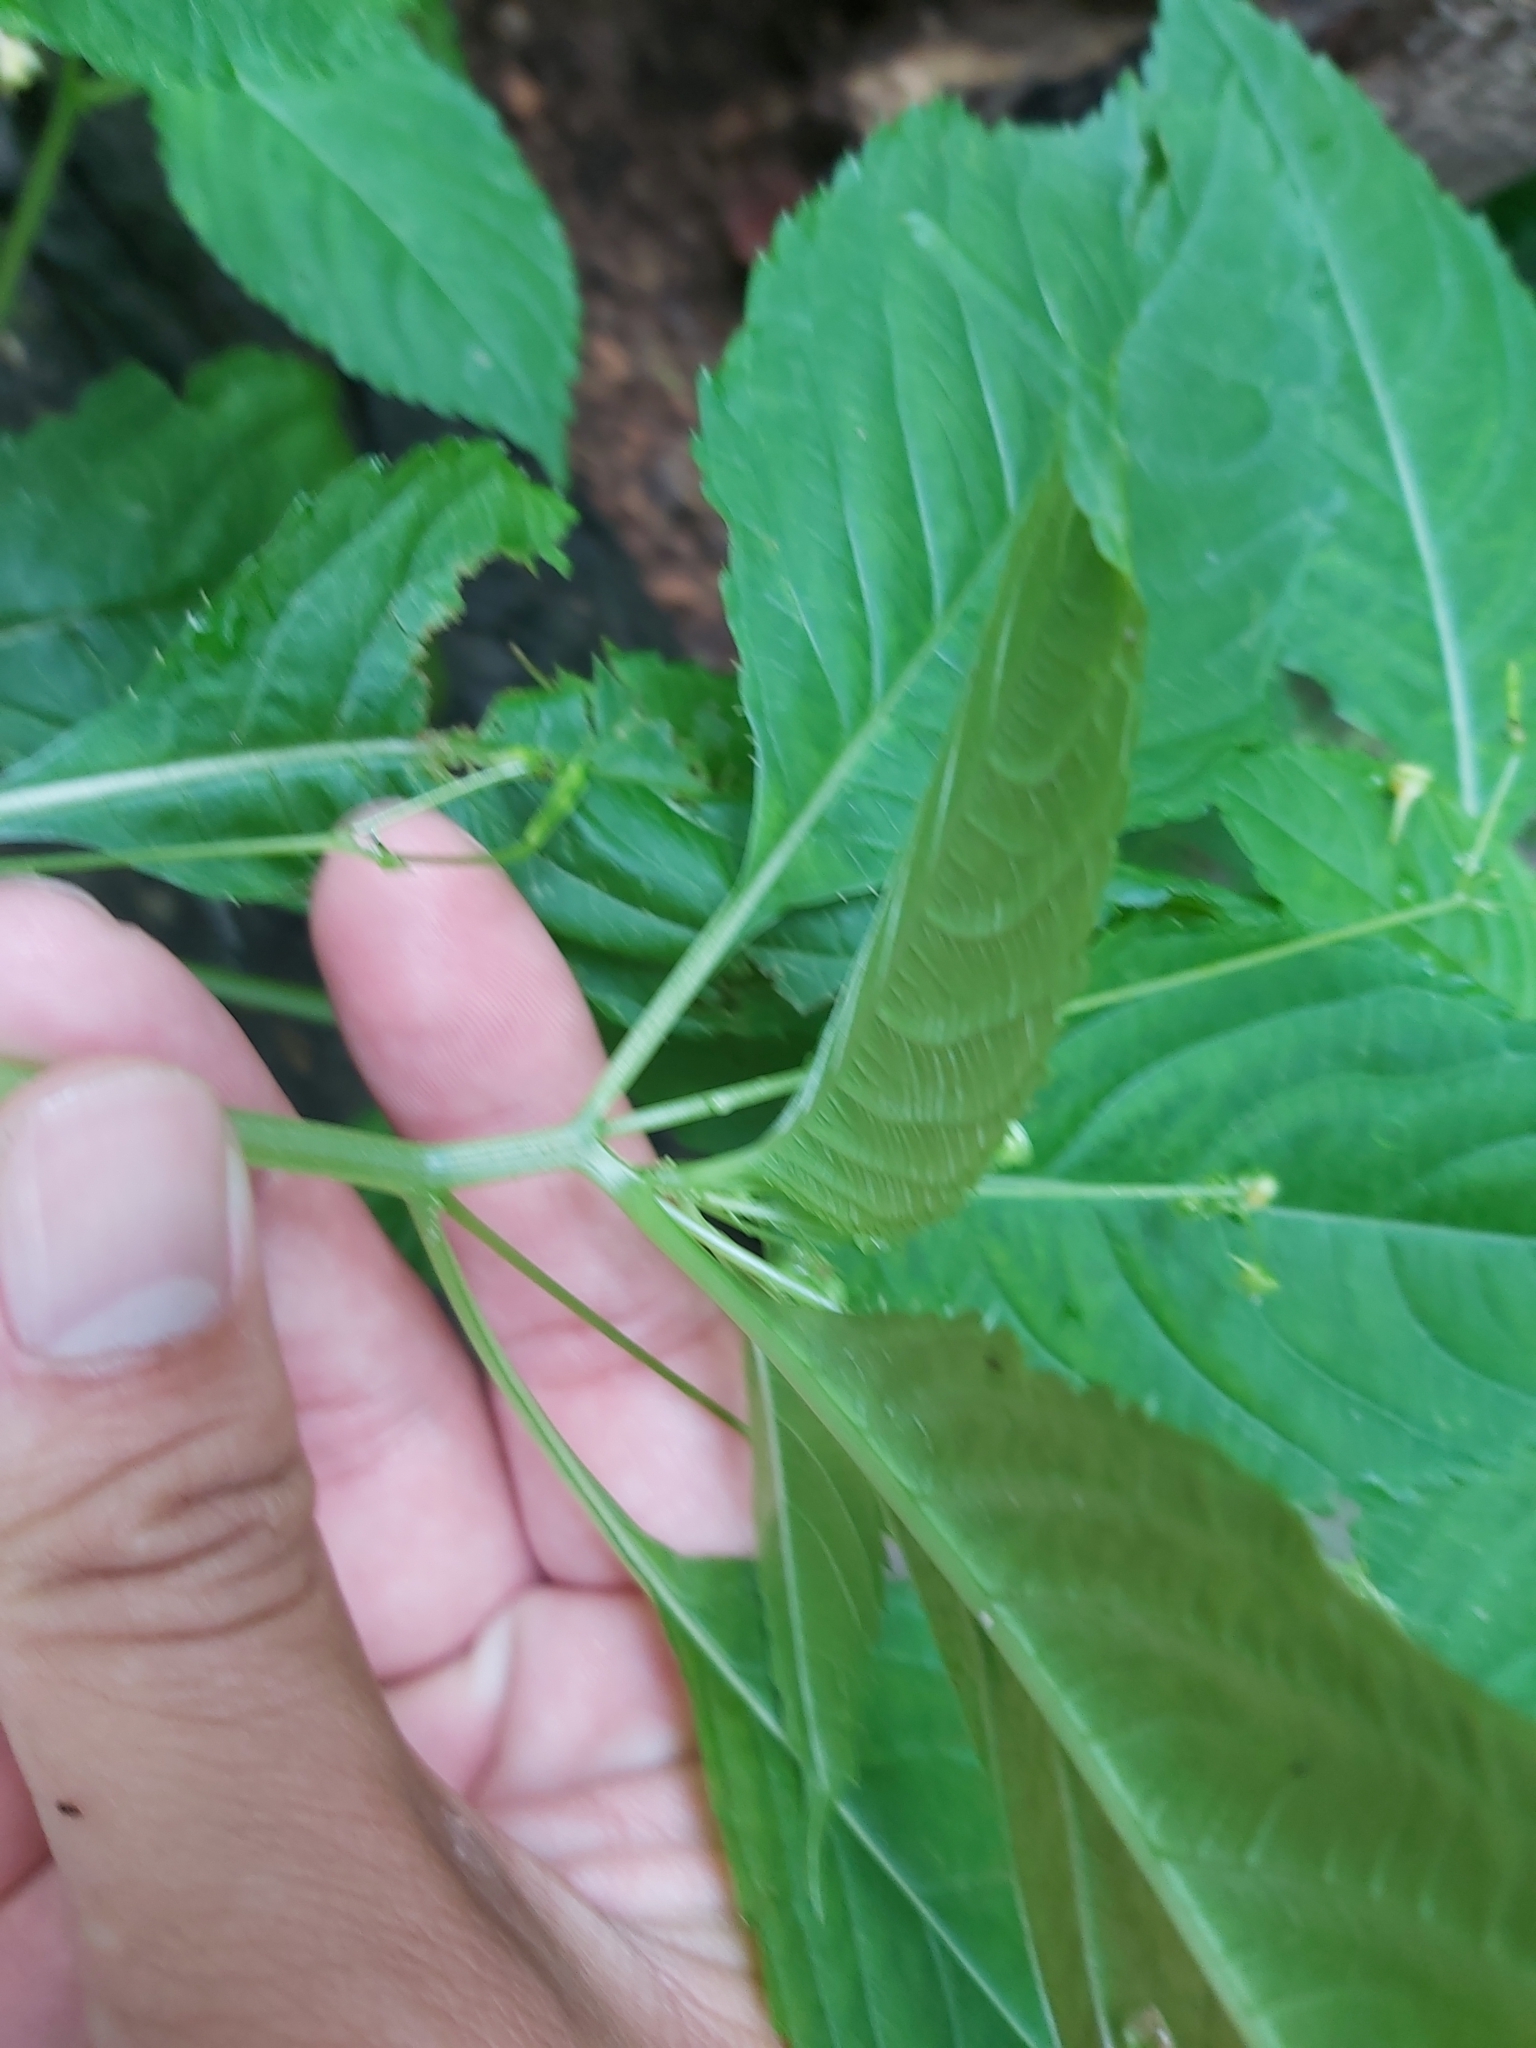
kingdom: Plantae
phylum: Tracheophyta
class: Magnoliopsida
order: Ericales
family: Balsaminaceae
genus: Impatiens
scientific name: Impatiens parviflora
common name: Small balsam
